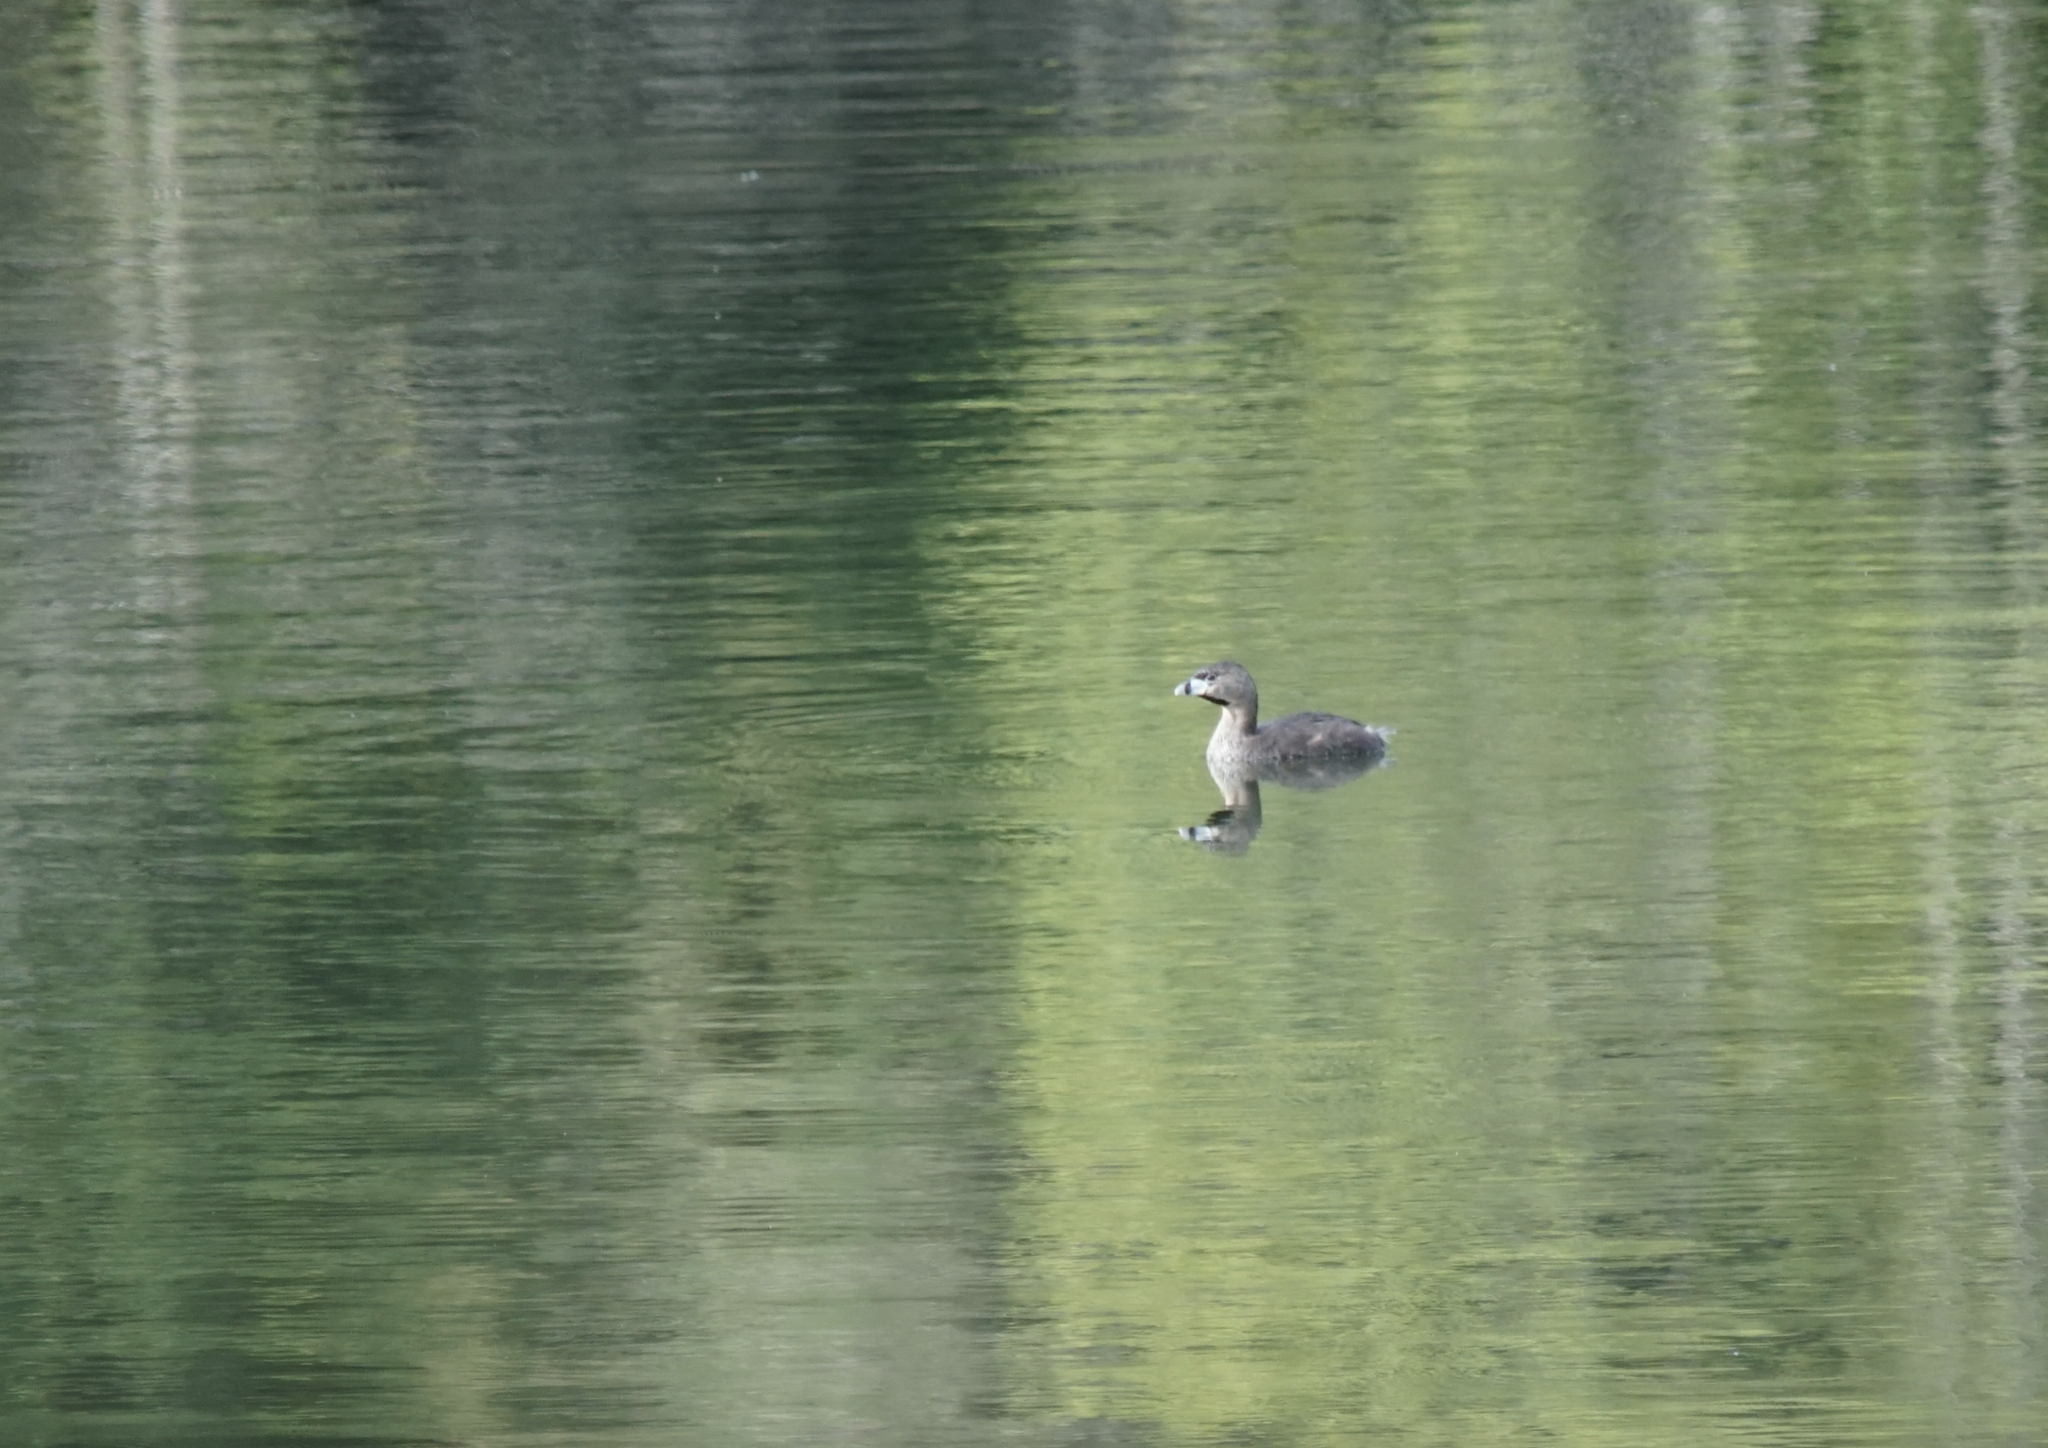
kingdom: Animalia
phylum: Chordata
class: Aves
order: Podicipediformes
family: Podicipedidae
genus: Podilymbus
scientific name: Podilymbus podiceps
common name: Pied-billed grebe
